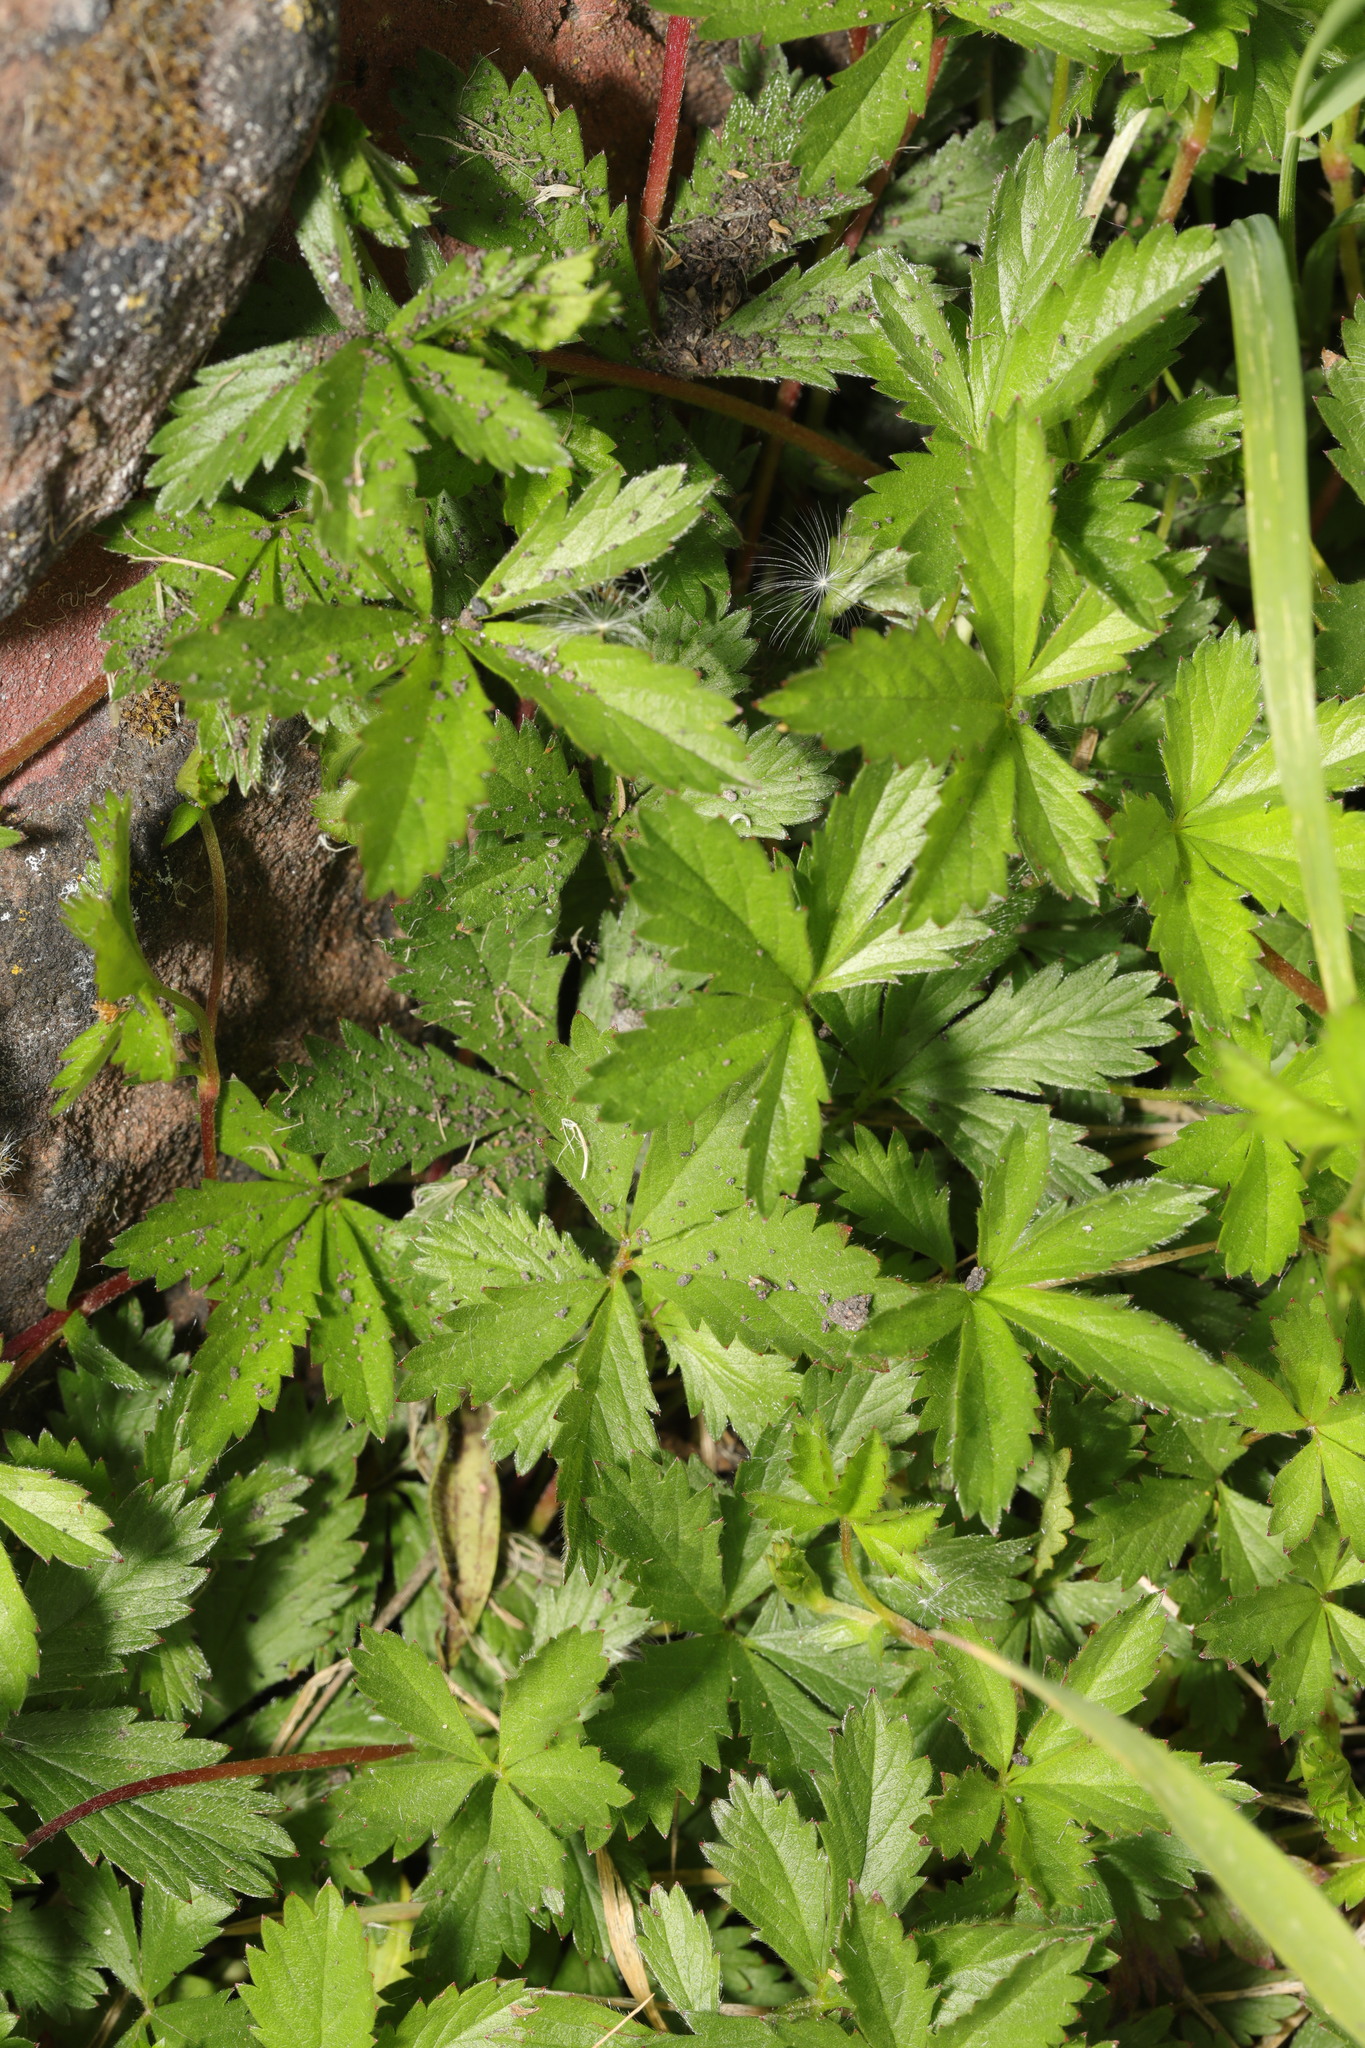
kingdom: Plantae
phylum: Tracheophyta
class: Magnoliopsida
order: Rosales
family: Rosaceae
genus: Potentilla
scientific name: Potentilla reptans
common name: Creeping cinquefoil
